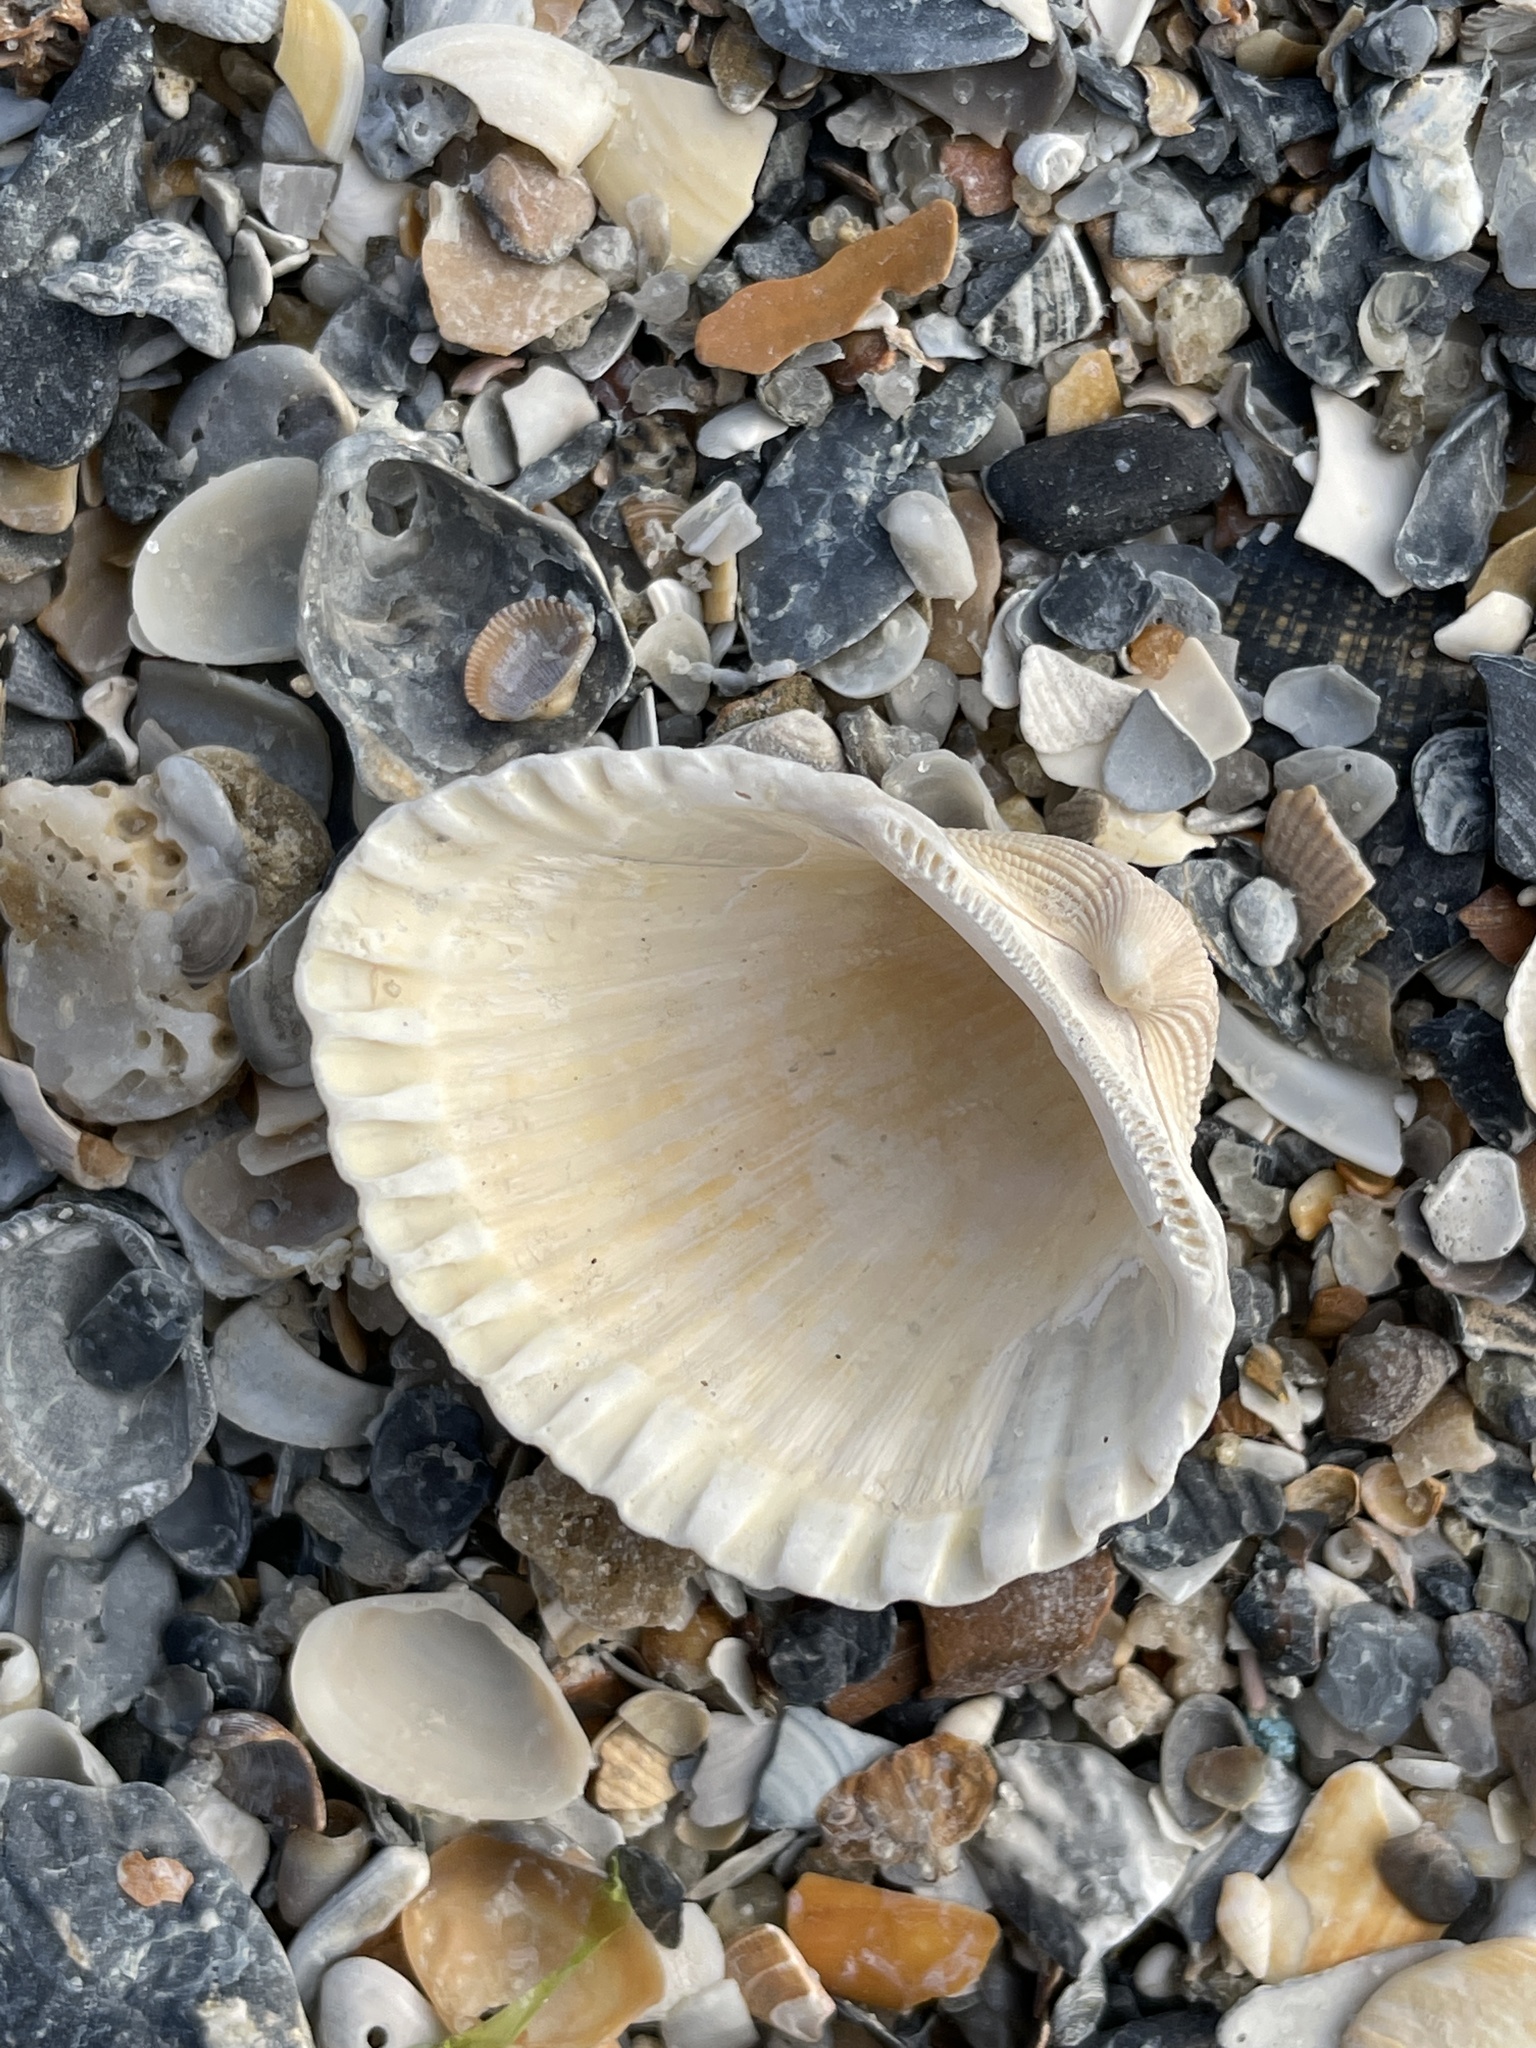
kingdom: Animalia
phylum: Mollusca
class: Bivalvia
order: Arcida
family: Arcidae
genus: Anadara
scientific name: Anadara brasiliana
